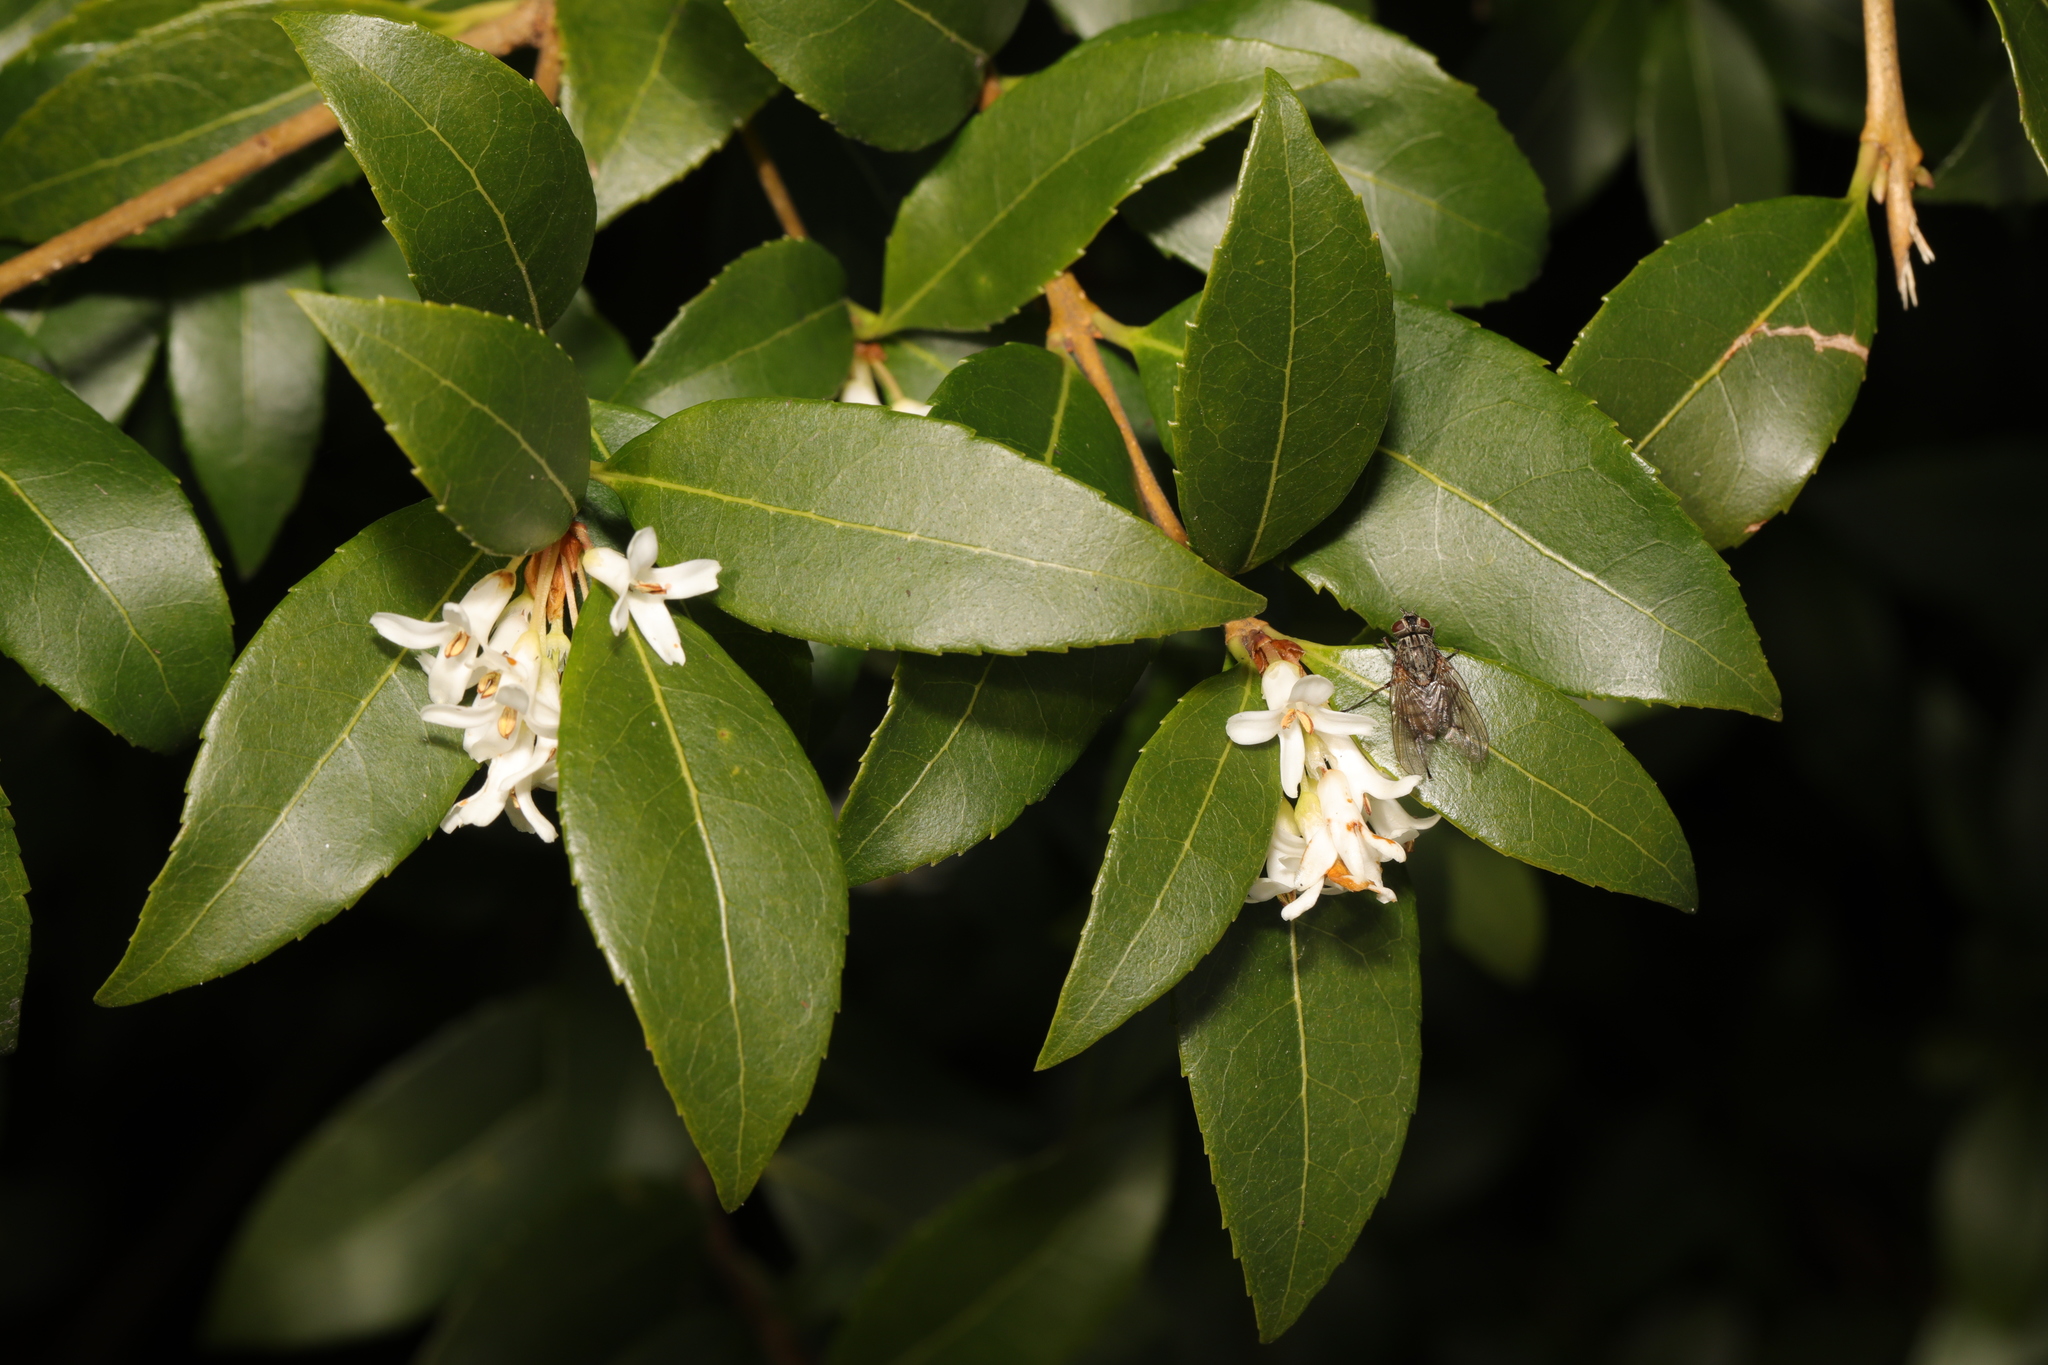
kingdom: Plantae
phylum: Tracheophyta
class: Magnoliopsida
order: Lamiales
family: Oleaceae
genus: Osmanthus
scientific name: Osmanthus burkwoodii
